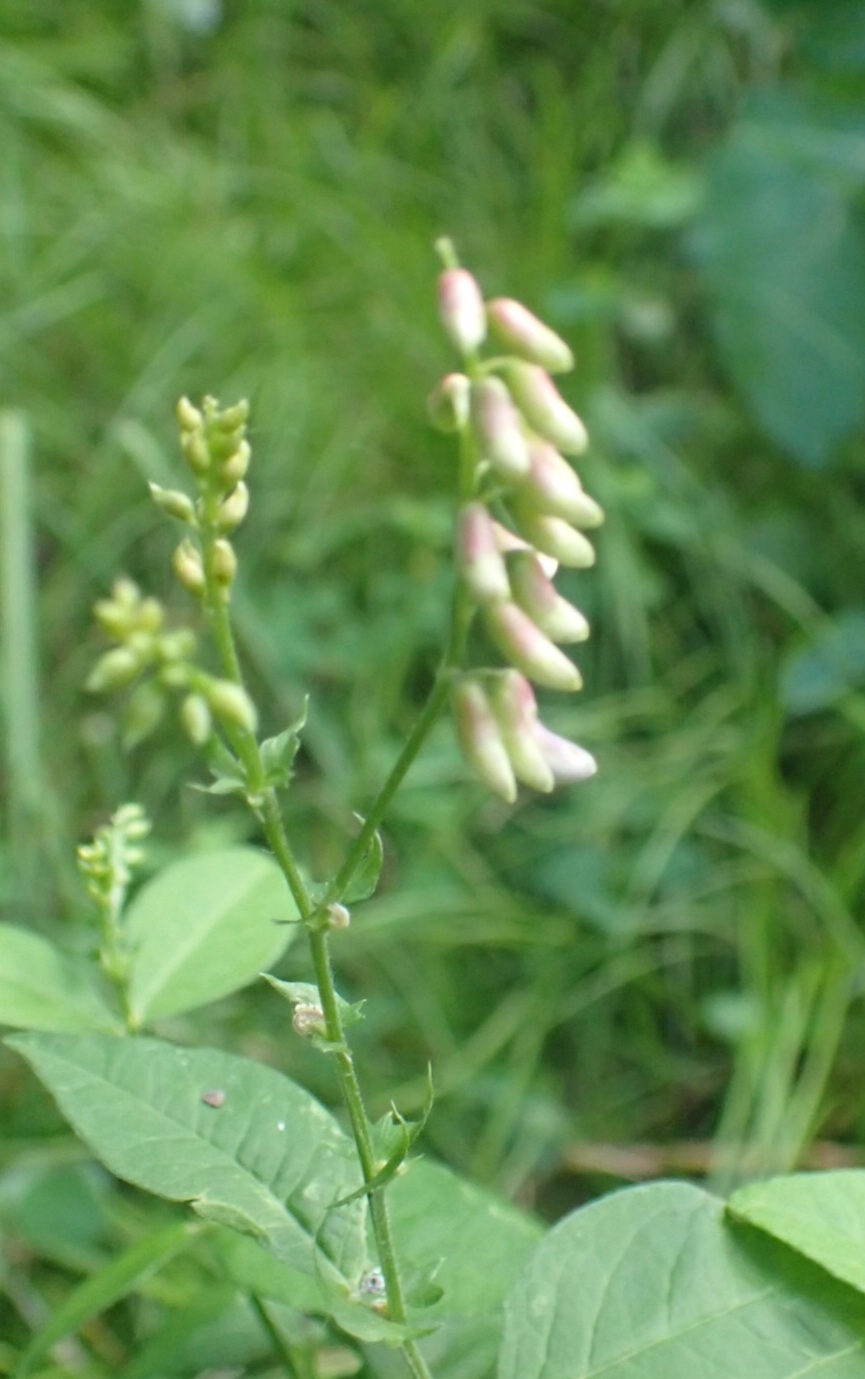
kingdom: Plantae
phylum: Tracheophyta
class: Magnoliopsida
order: Fabales
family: Fabaceae
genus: Vicia
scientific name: Vicia unijuga
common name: Two-leaf vetch
